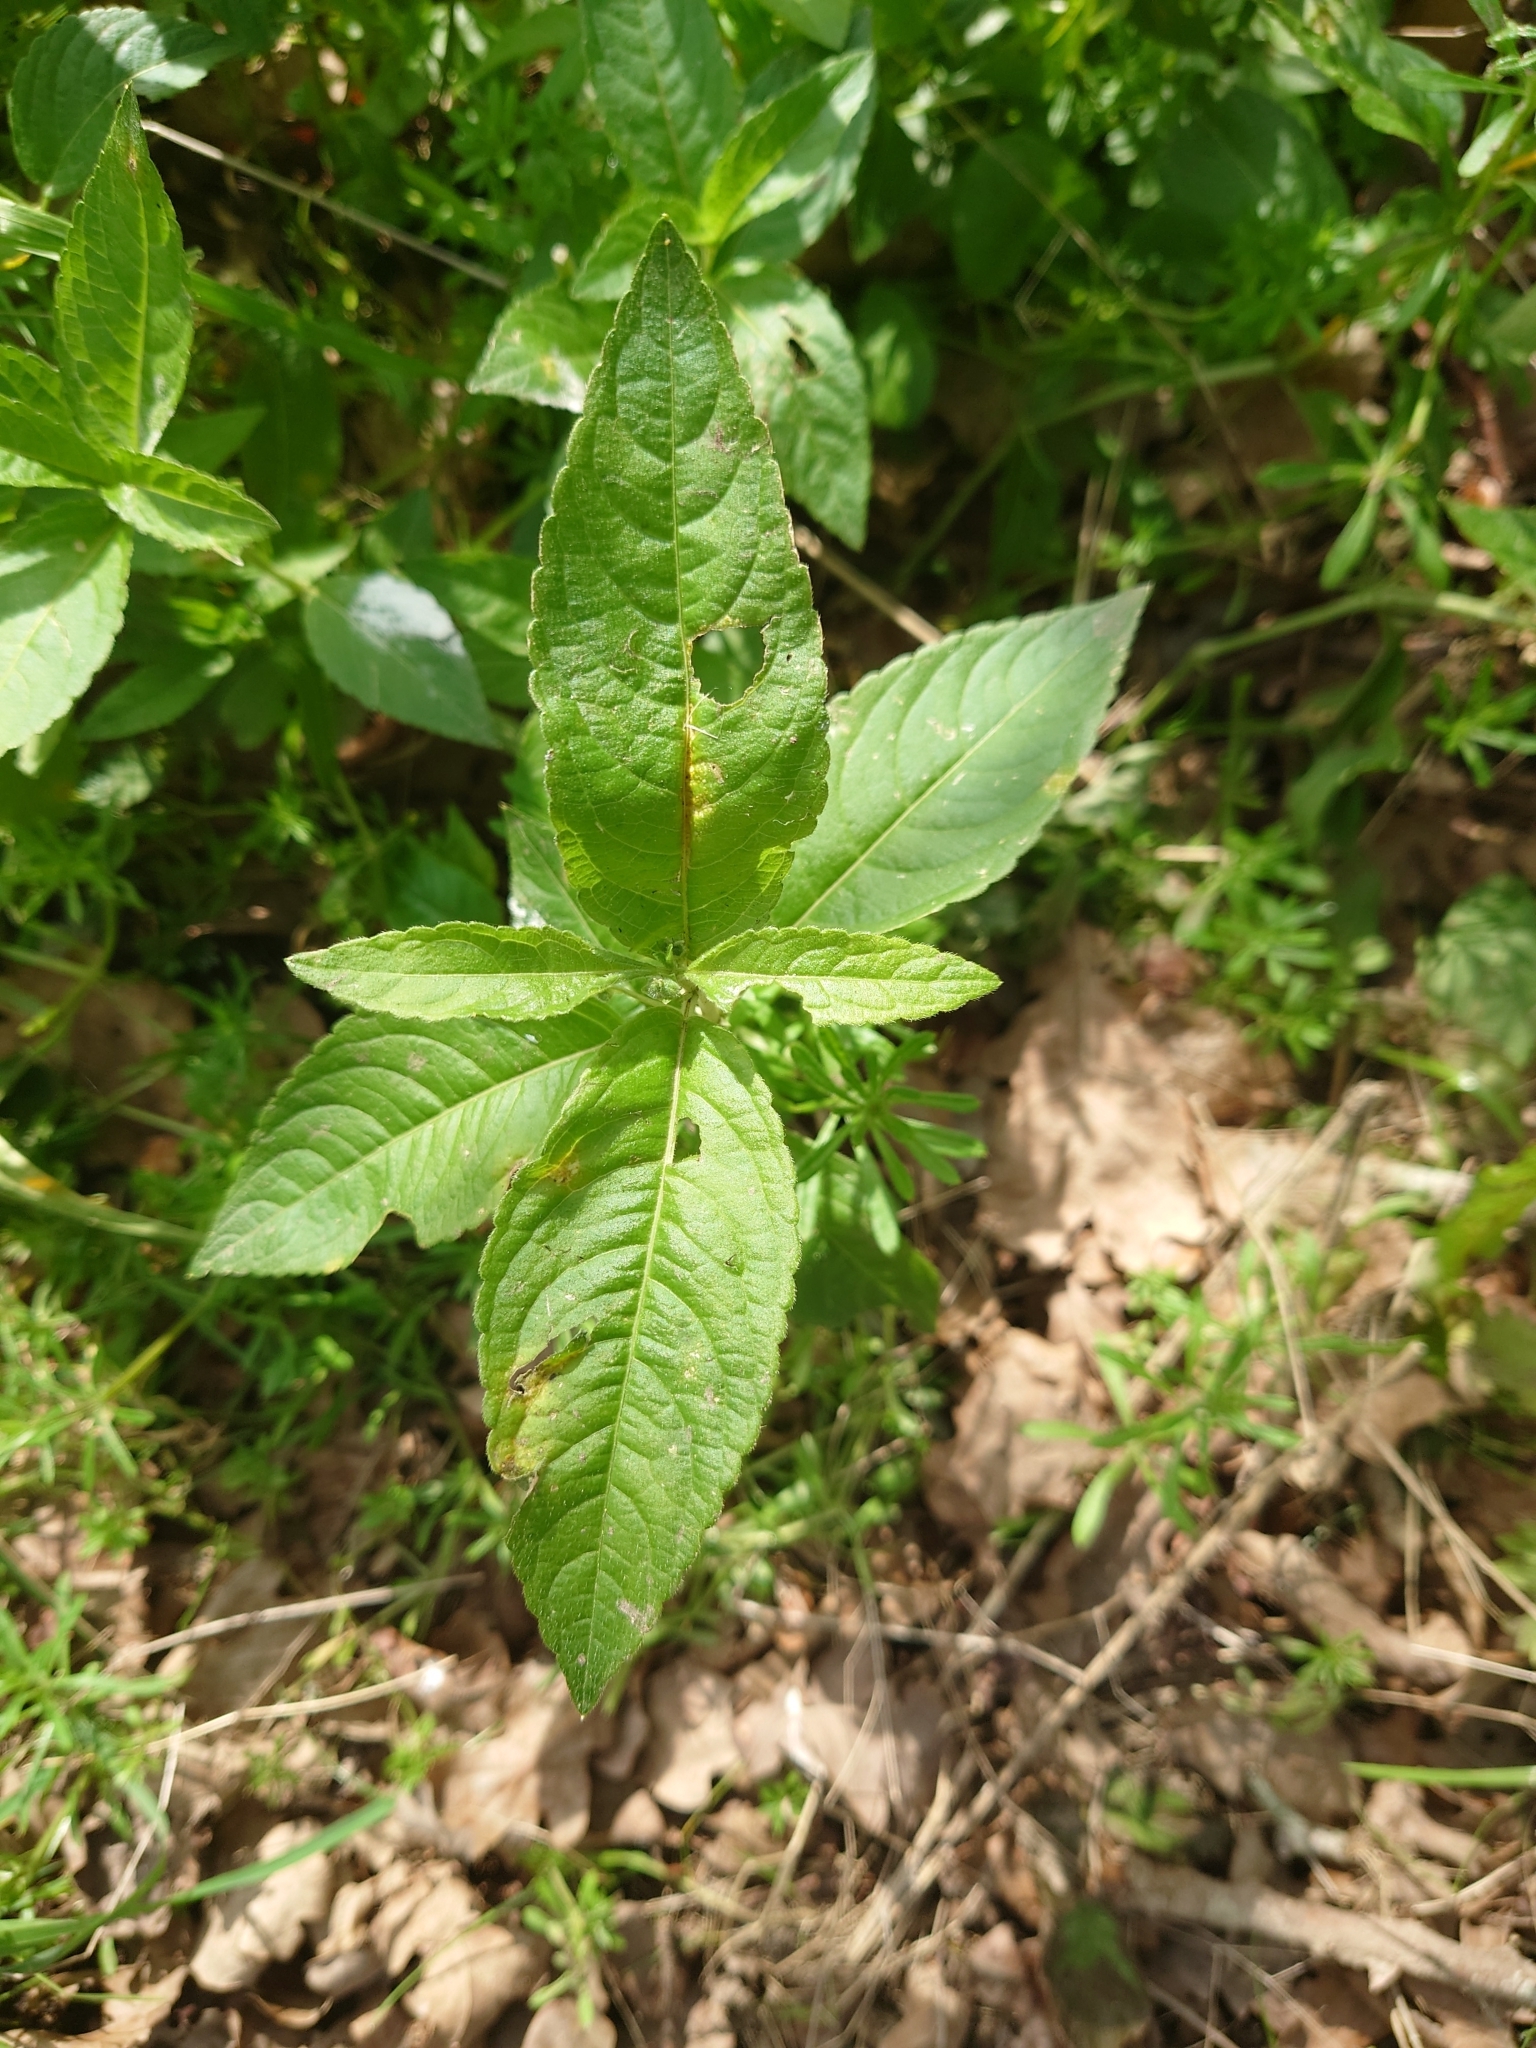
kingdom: Plantae
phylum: Tracheophyta
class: Magnoliopsida
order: Malpighiales
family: Euphorbiaceae
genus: Mercurialis
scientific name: Mercurialis perennis
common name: Dog mercury
